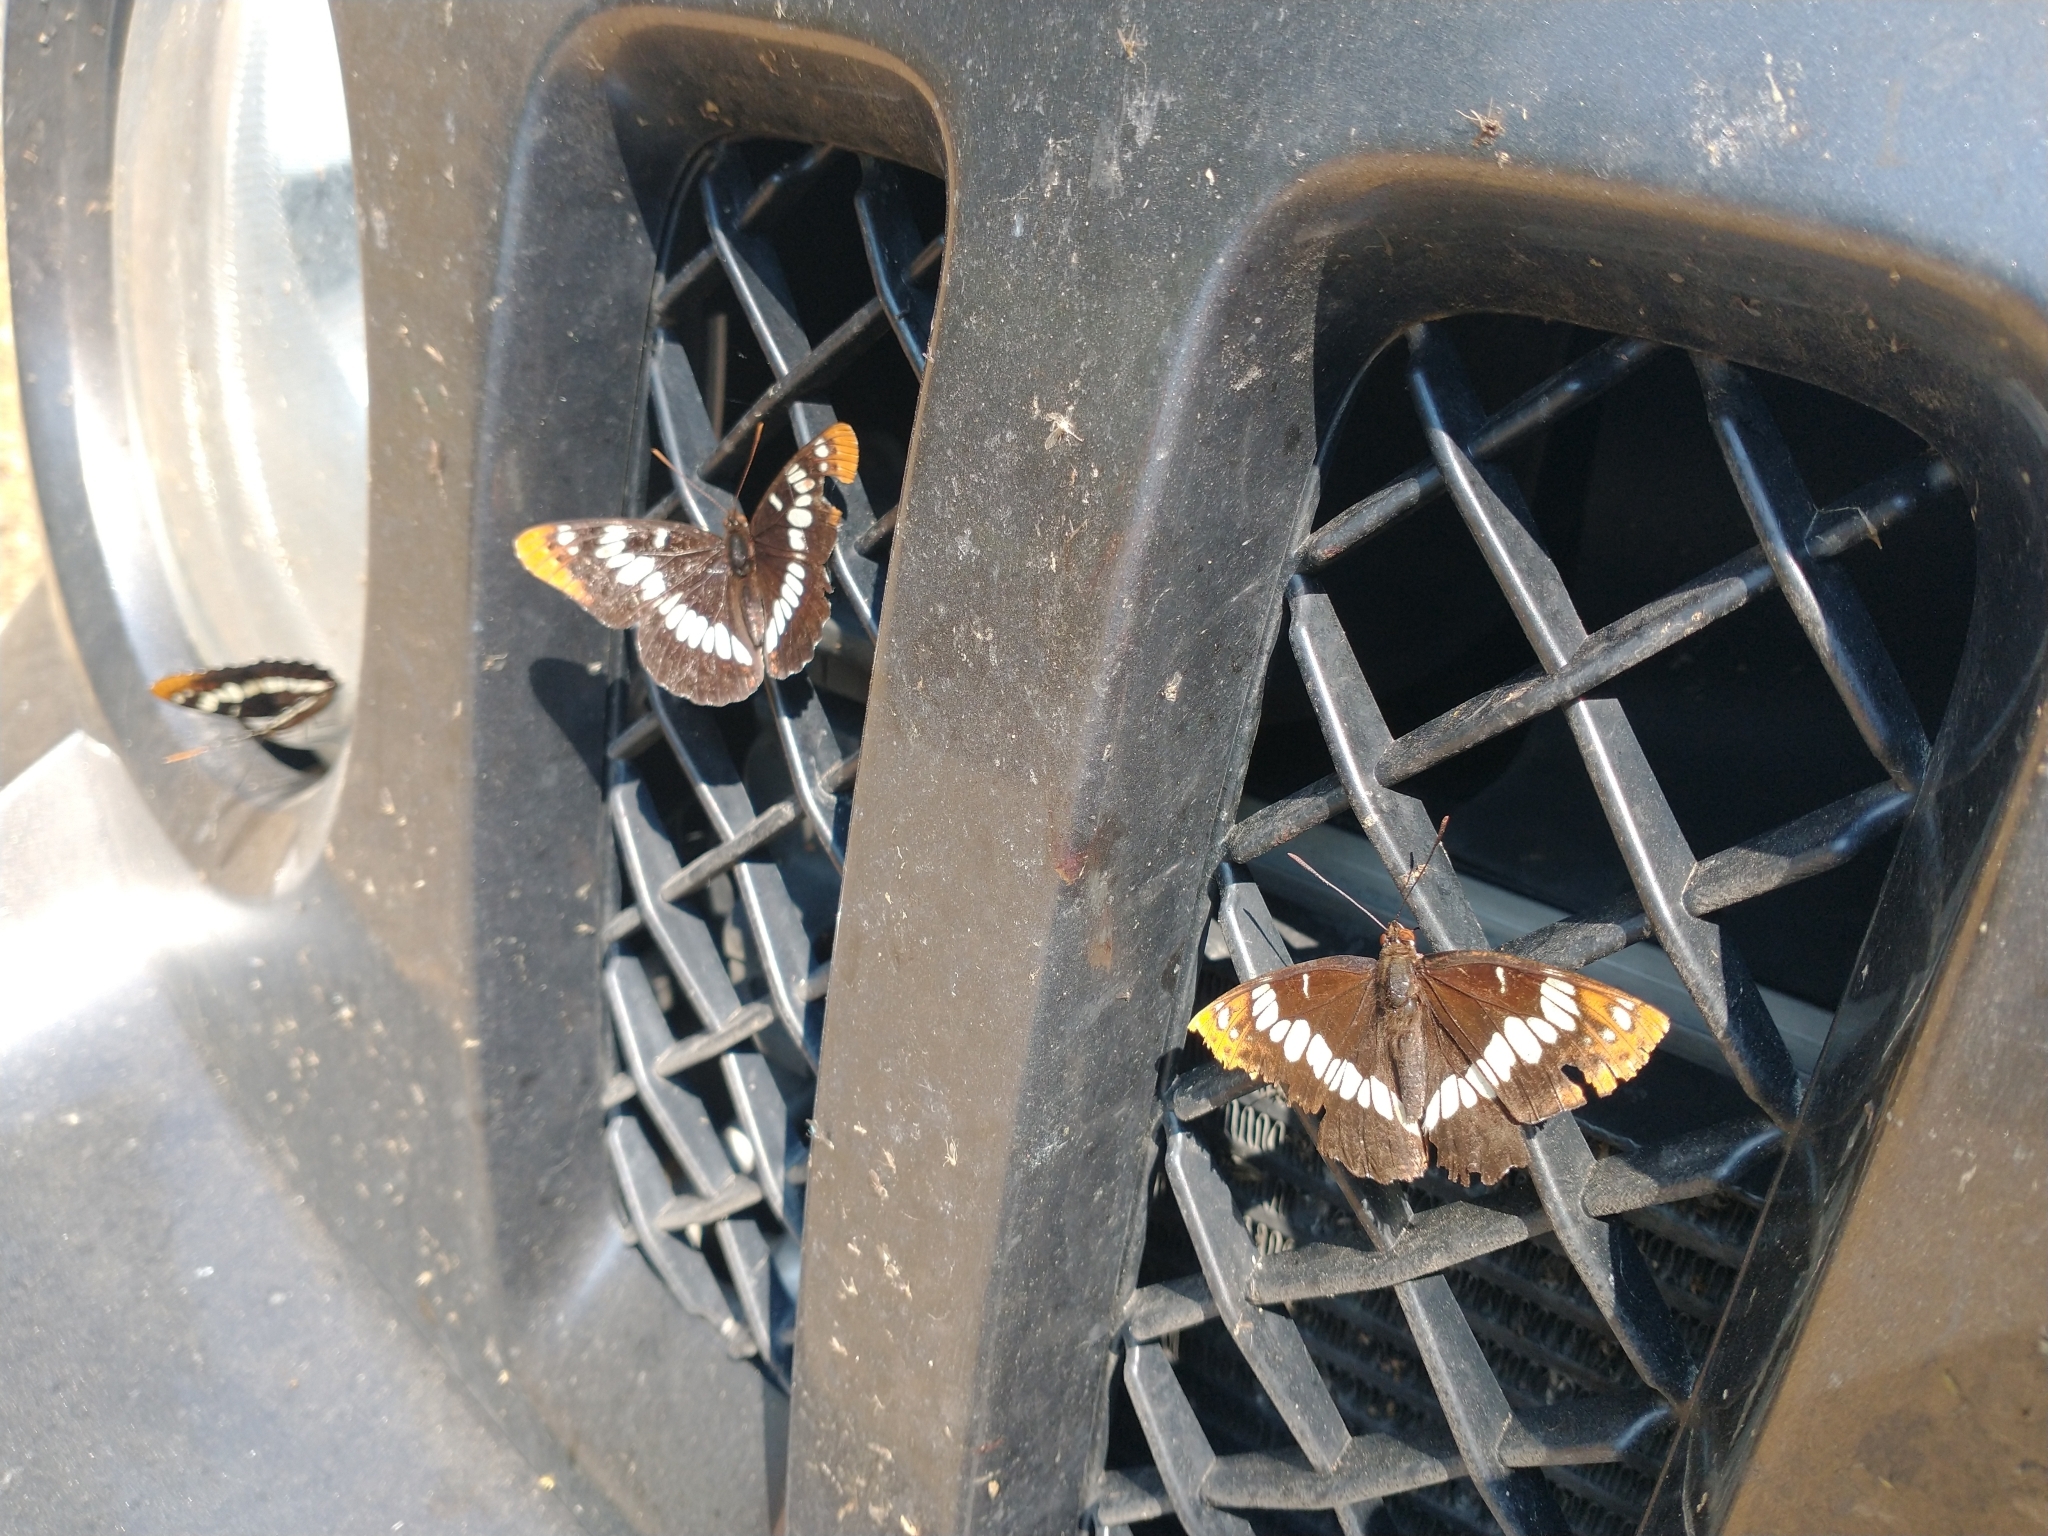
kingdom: Animalia
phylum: Arthropoda
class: Insecta
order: Lepidoptera
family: Nymphalidae
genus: Limenitis
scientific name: Limenitis lorquini
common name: Lorquin's admiral
